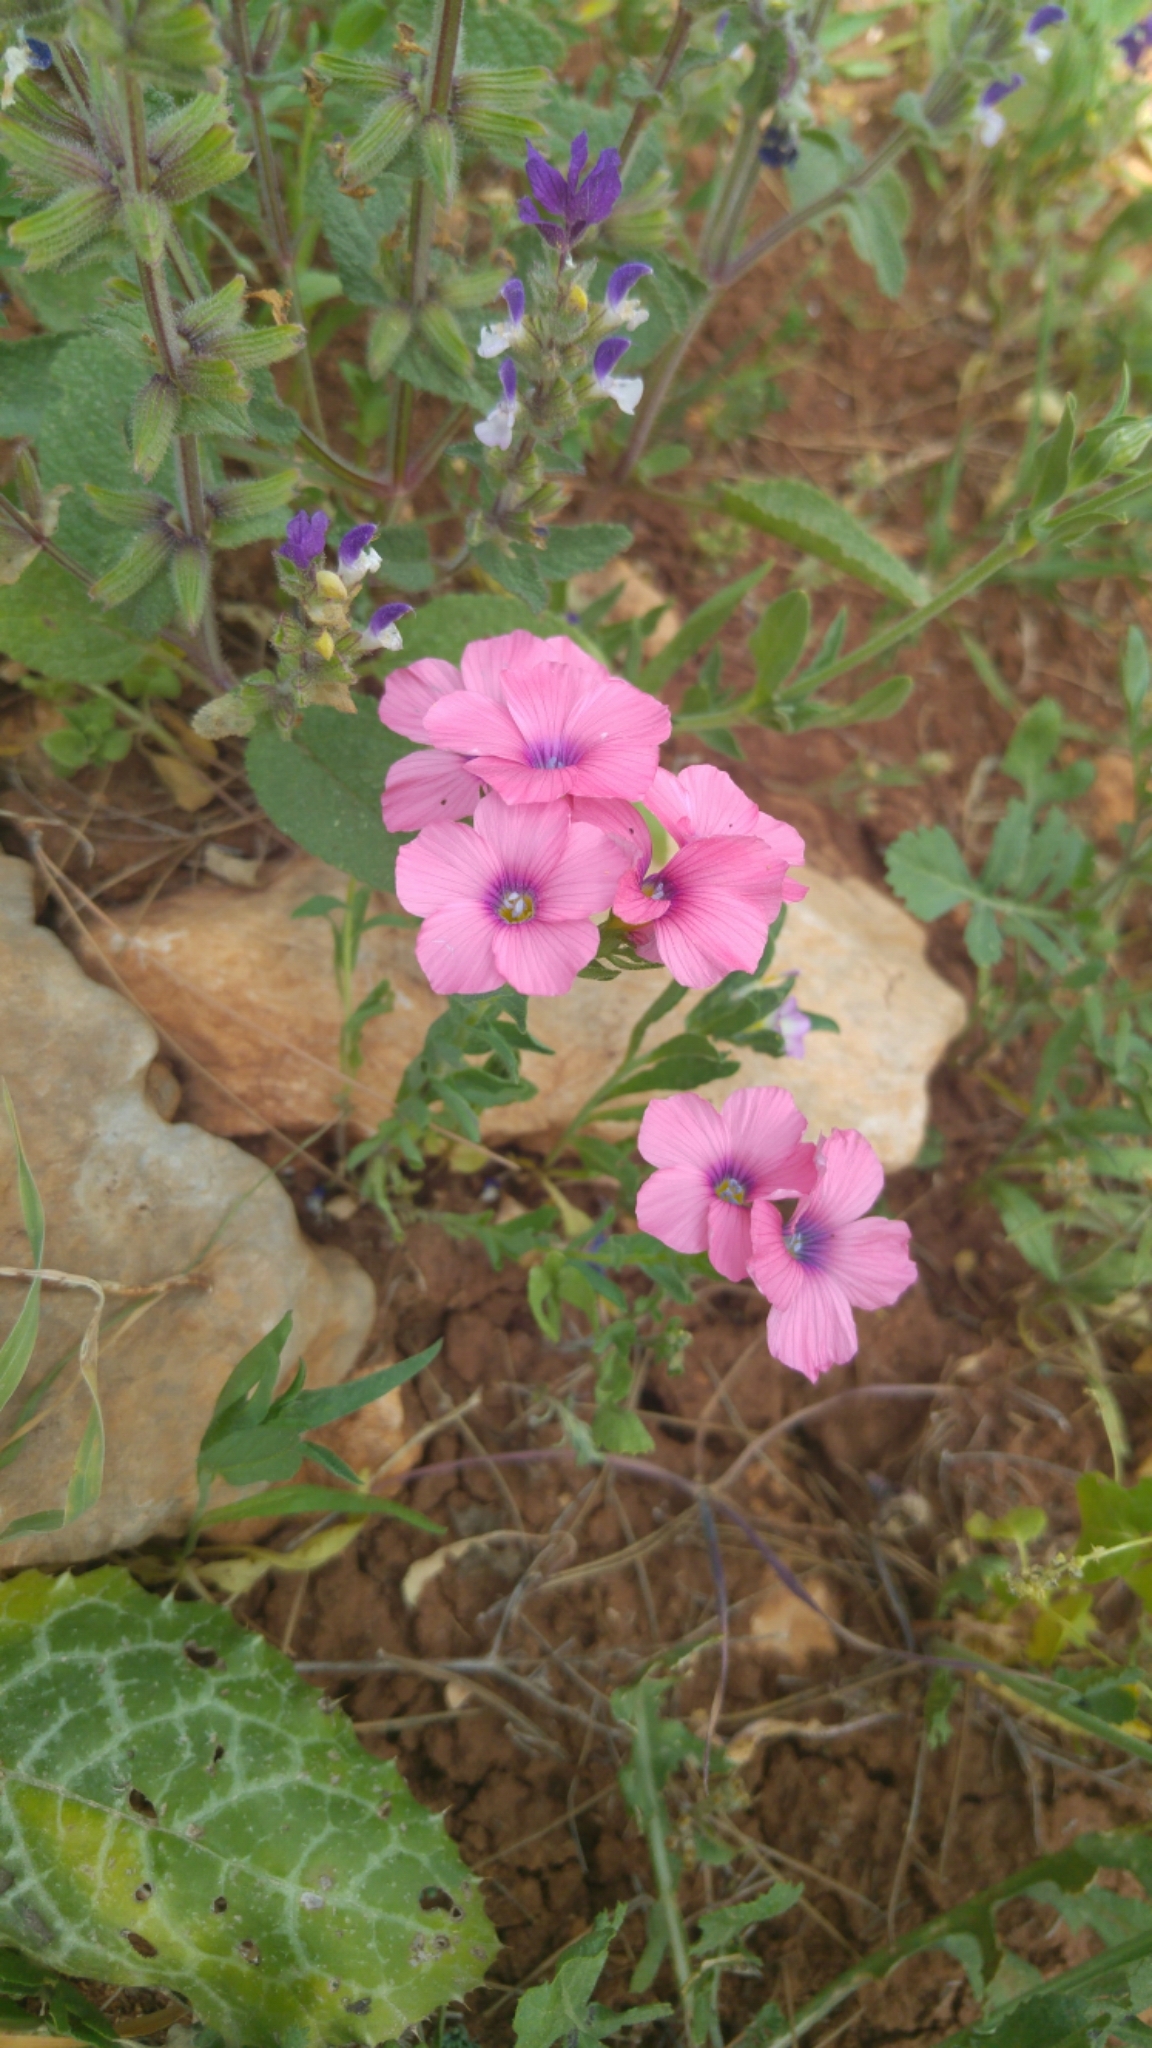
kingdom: Plantae
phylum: Tracheophyta
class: Magnoliopsida
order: Malpighiales
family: Linaceae
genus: Linum
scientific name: Linum pubescens
